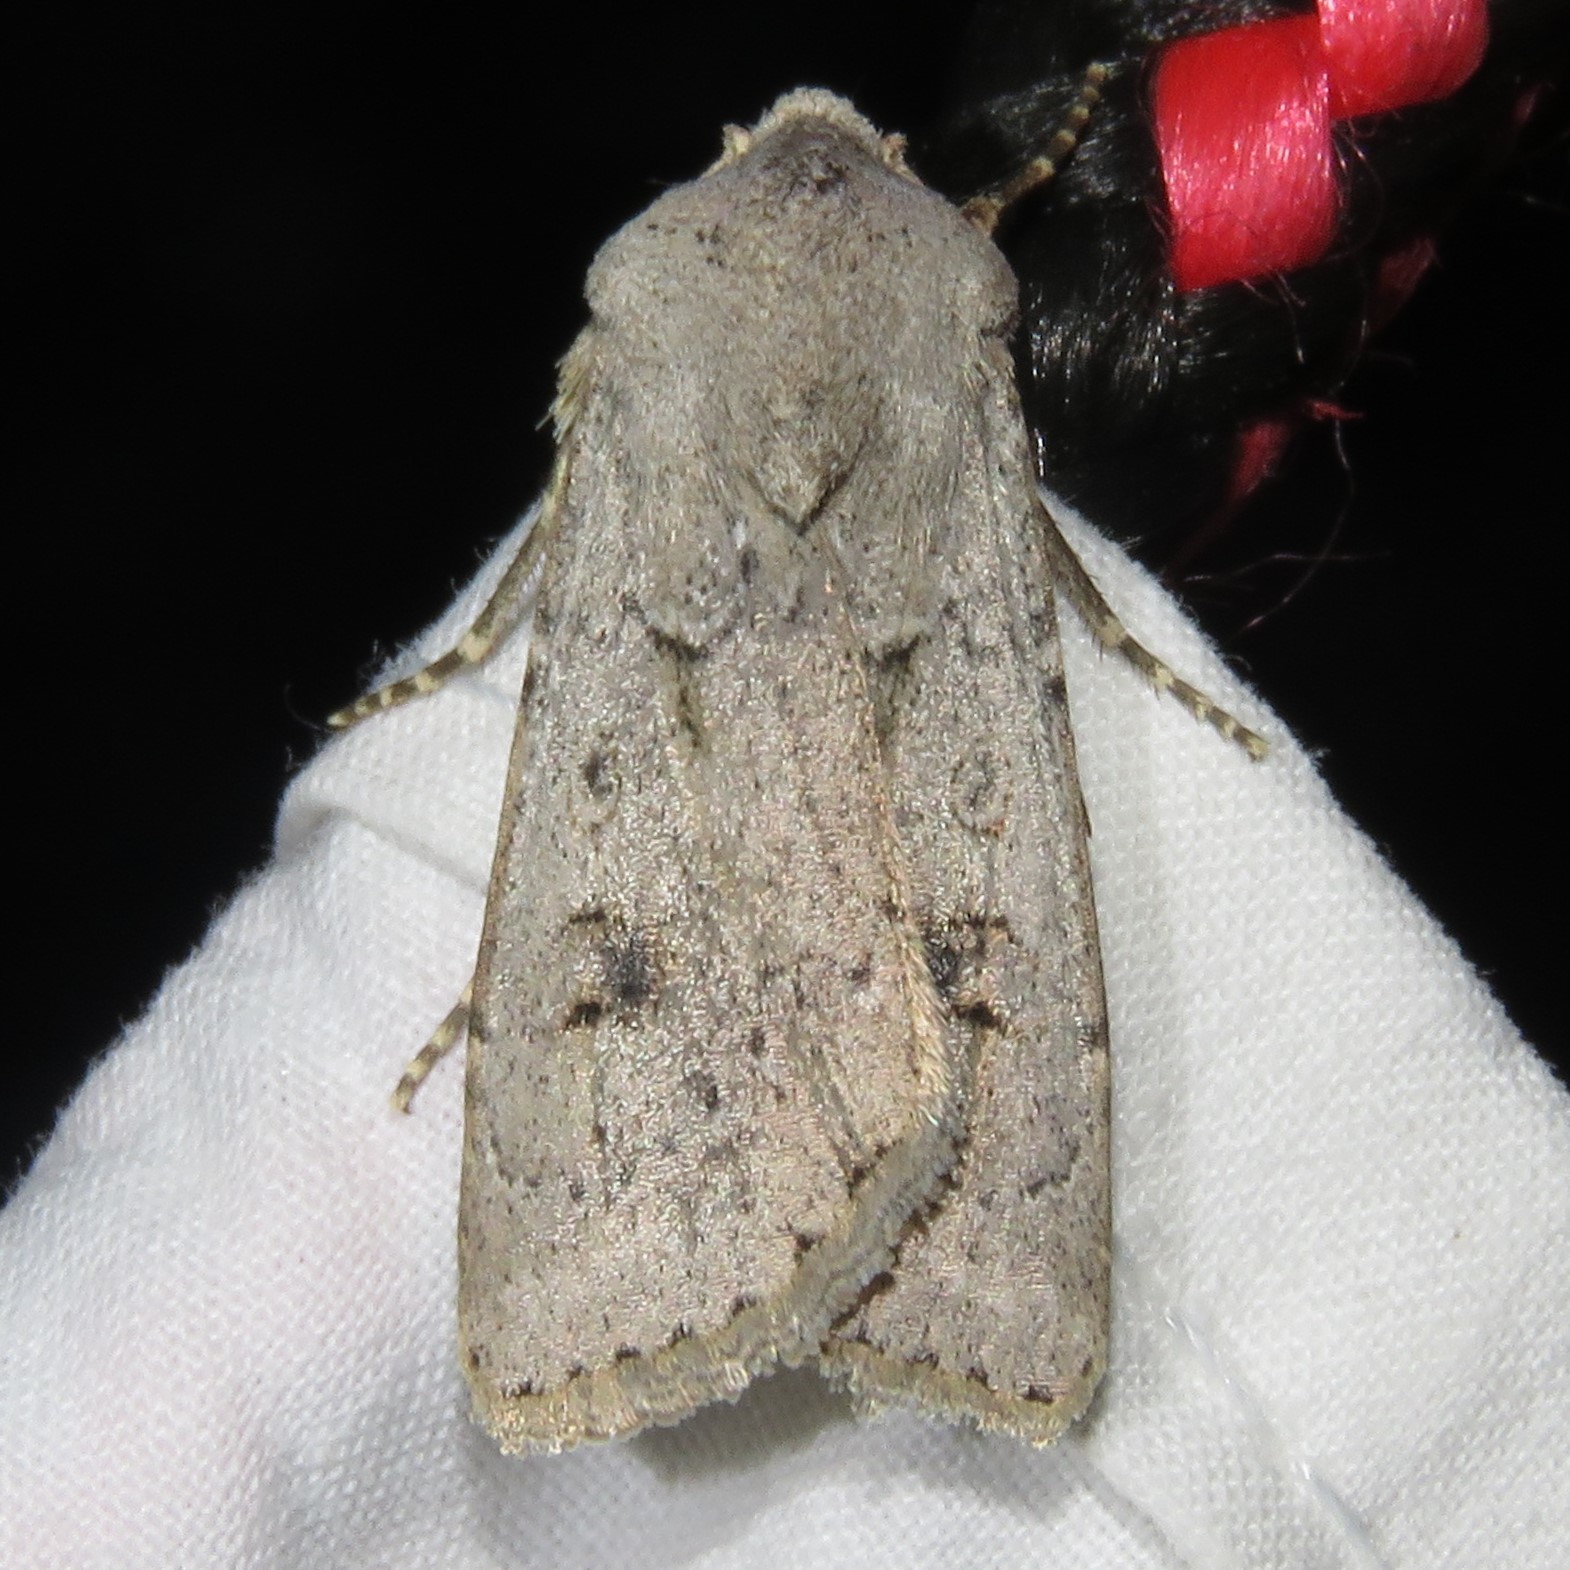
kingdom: Animalia
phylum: Arthropoda
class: Insecta
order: Lepidoptera
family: Noctuidae
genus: Agrotis
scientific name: Agrotis vetusta
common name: Old man dart
